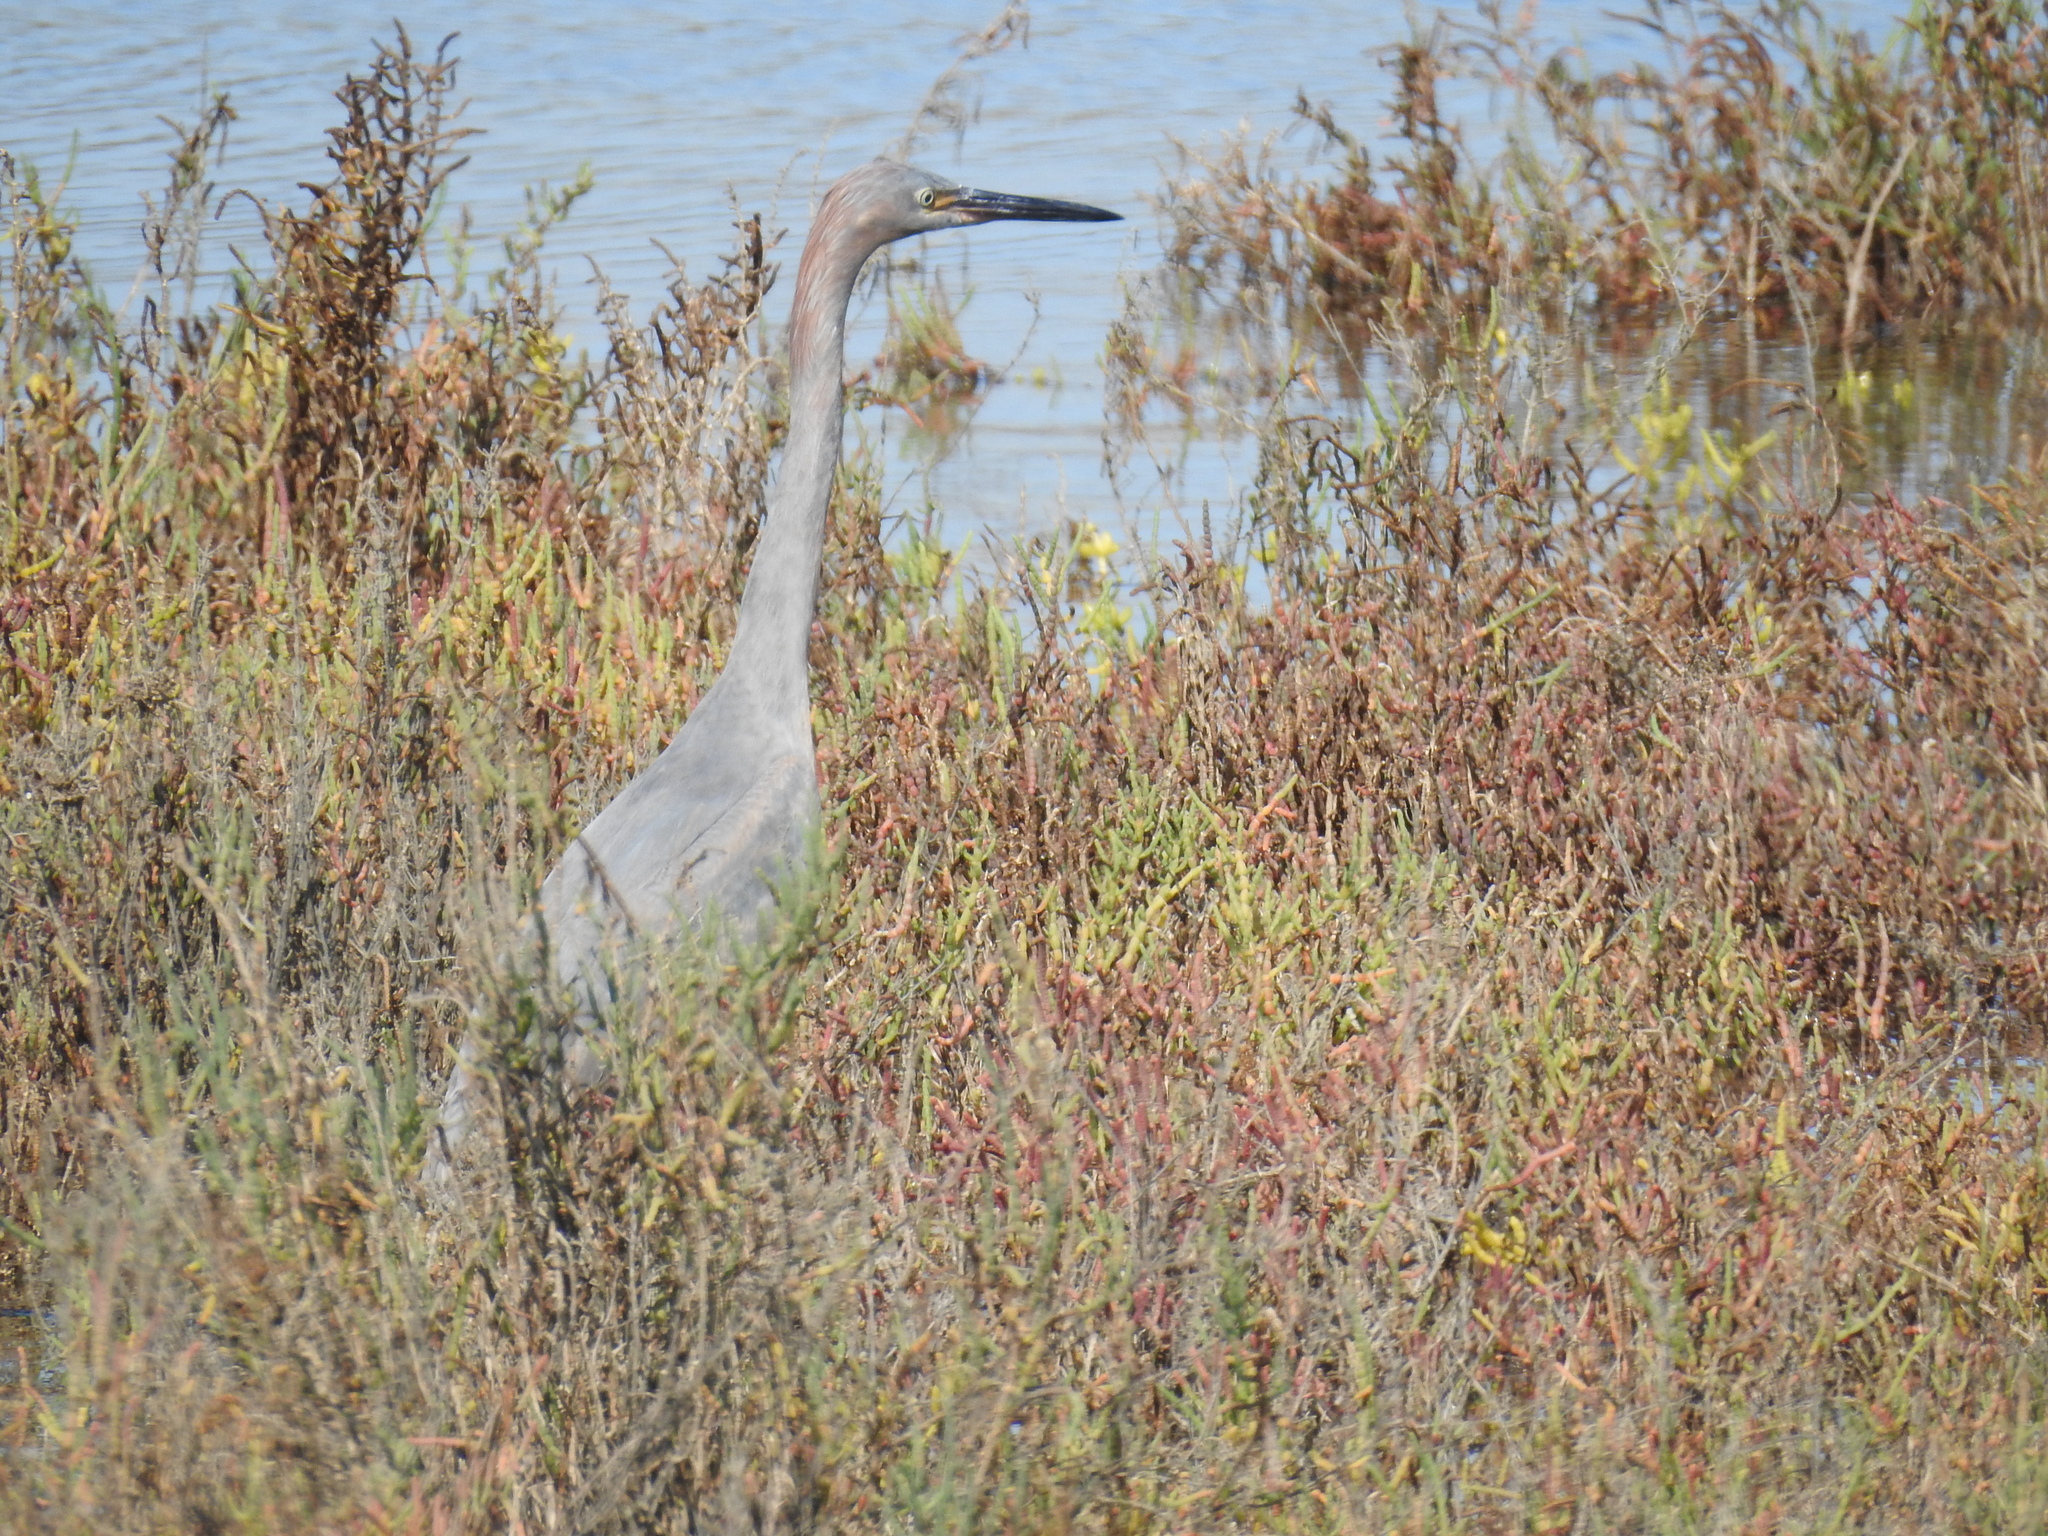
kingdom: Animalia
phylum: Chordata
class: Aves
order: Pelecaniformes
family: Ardeidae
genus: Egretta
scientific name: Egretta rufescens
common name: Reddish egret
